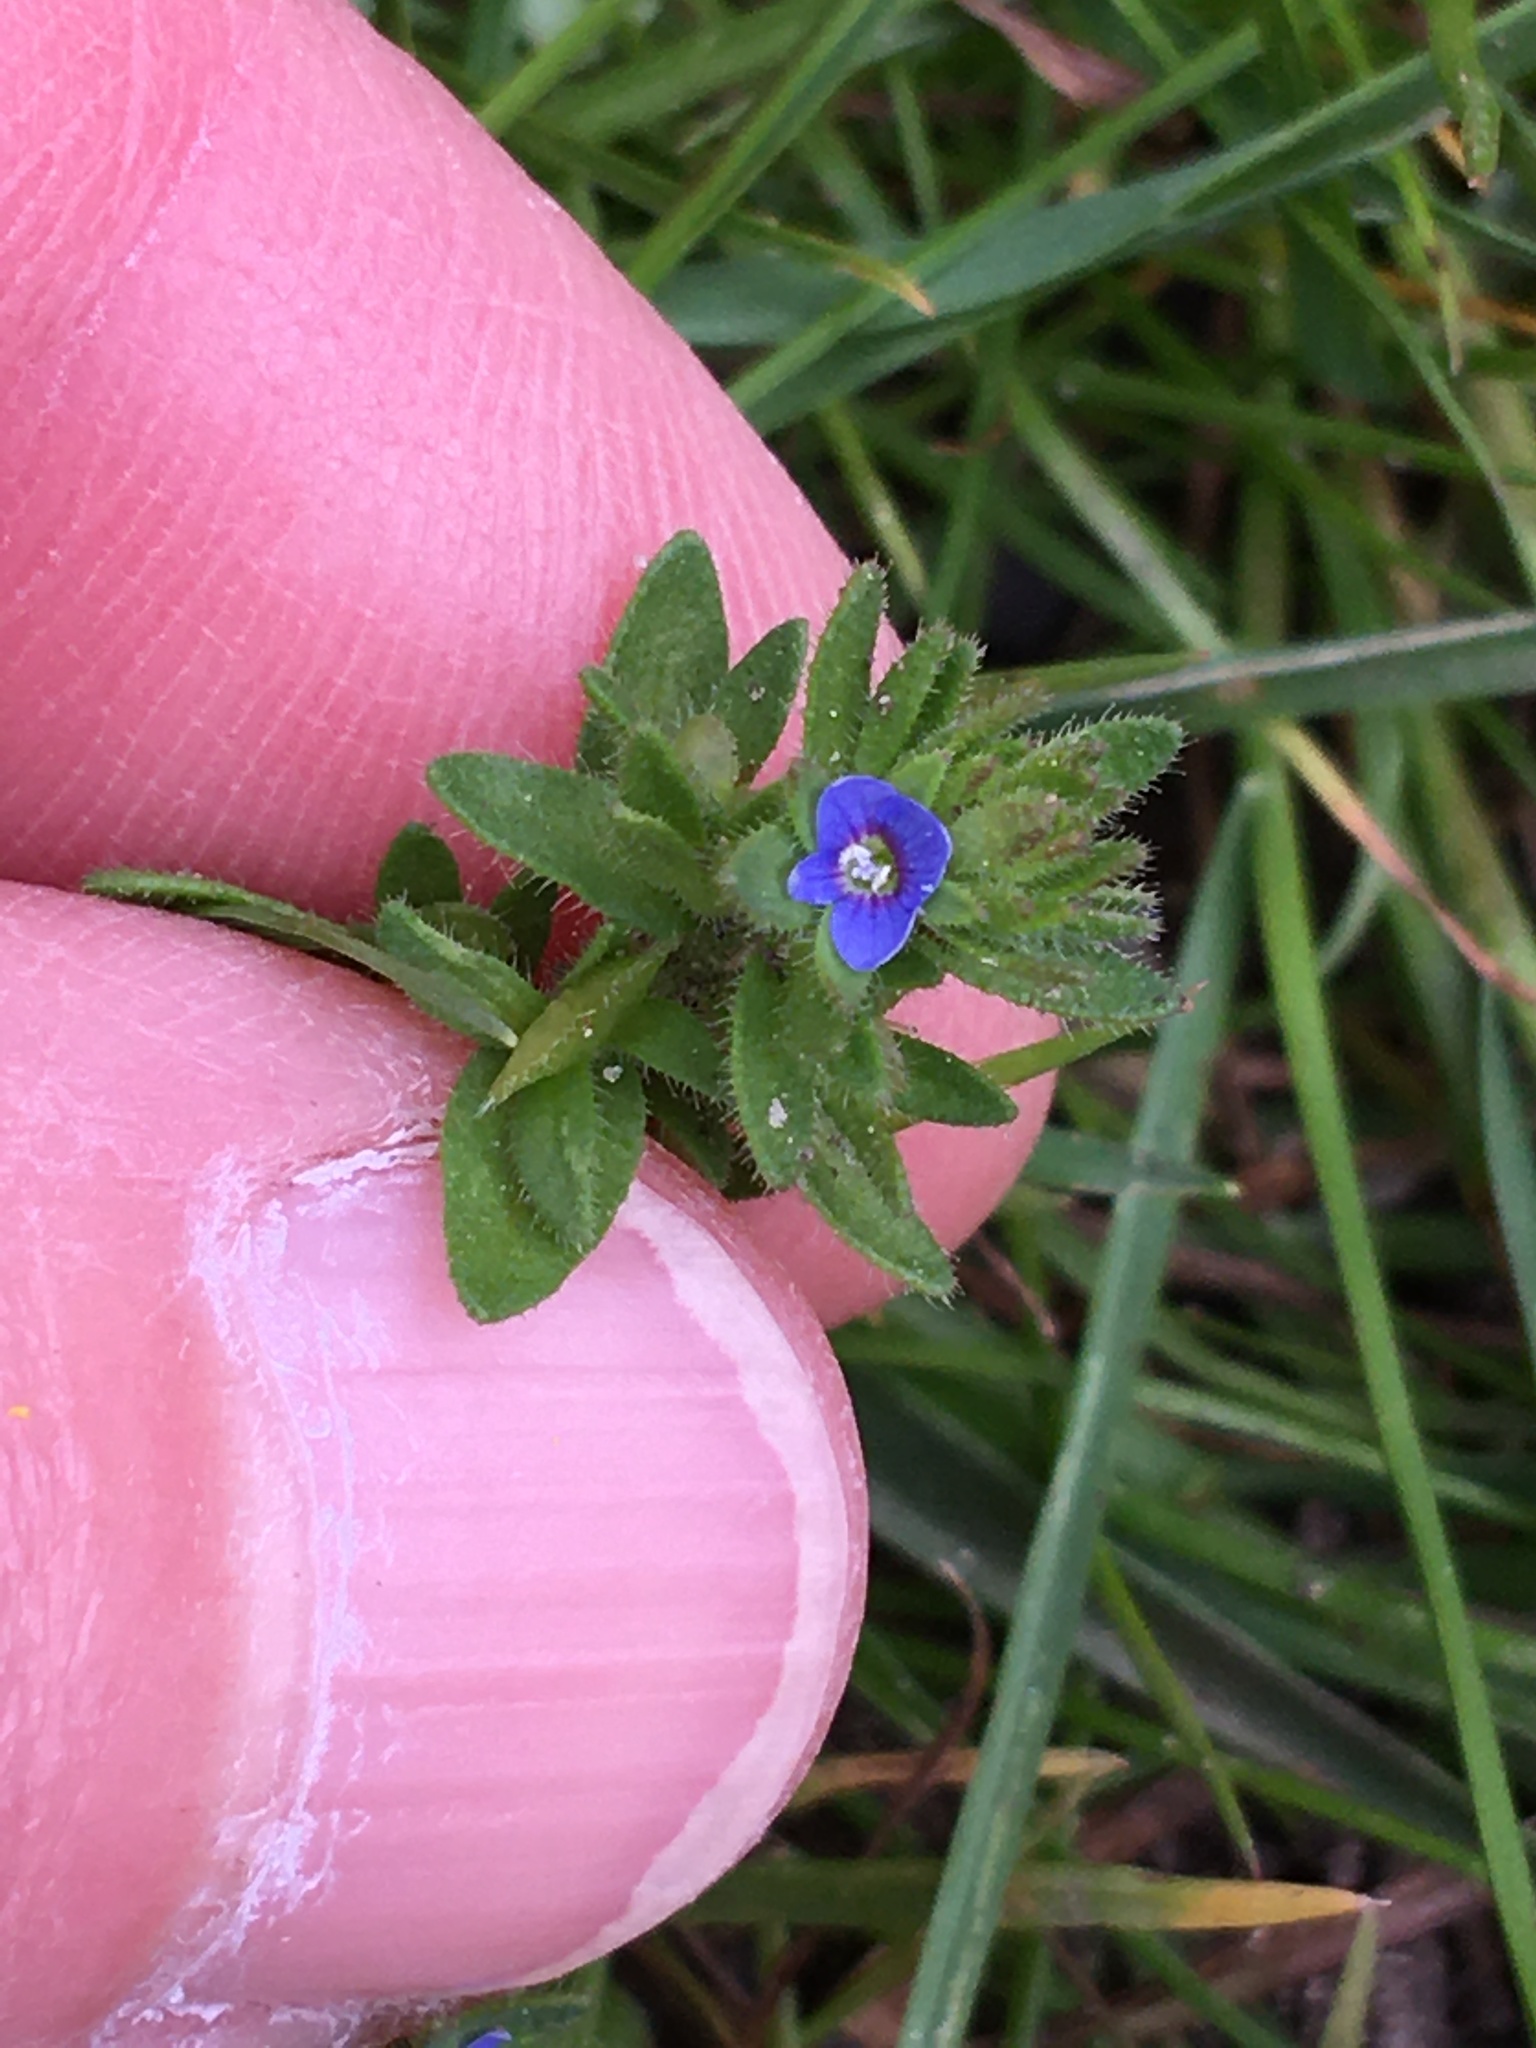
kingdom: Plantae
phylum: Tracheophyta
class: Magnoliopsida
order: Lamiales
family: Plantaginaceae
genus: Veronica
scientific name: Veronica arvensis
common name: Corn speedwell
